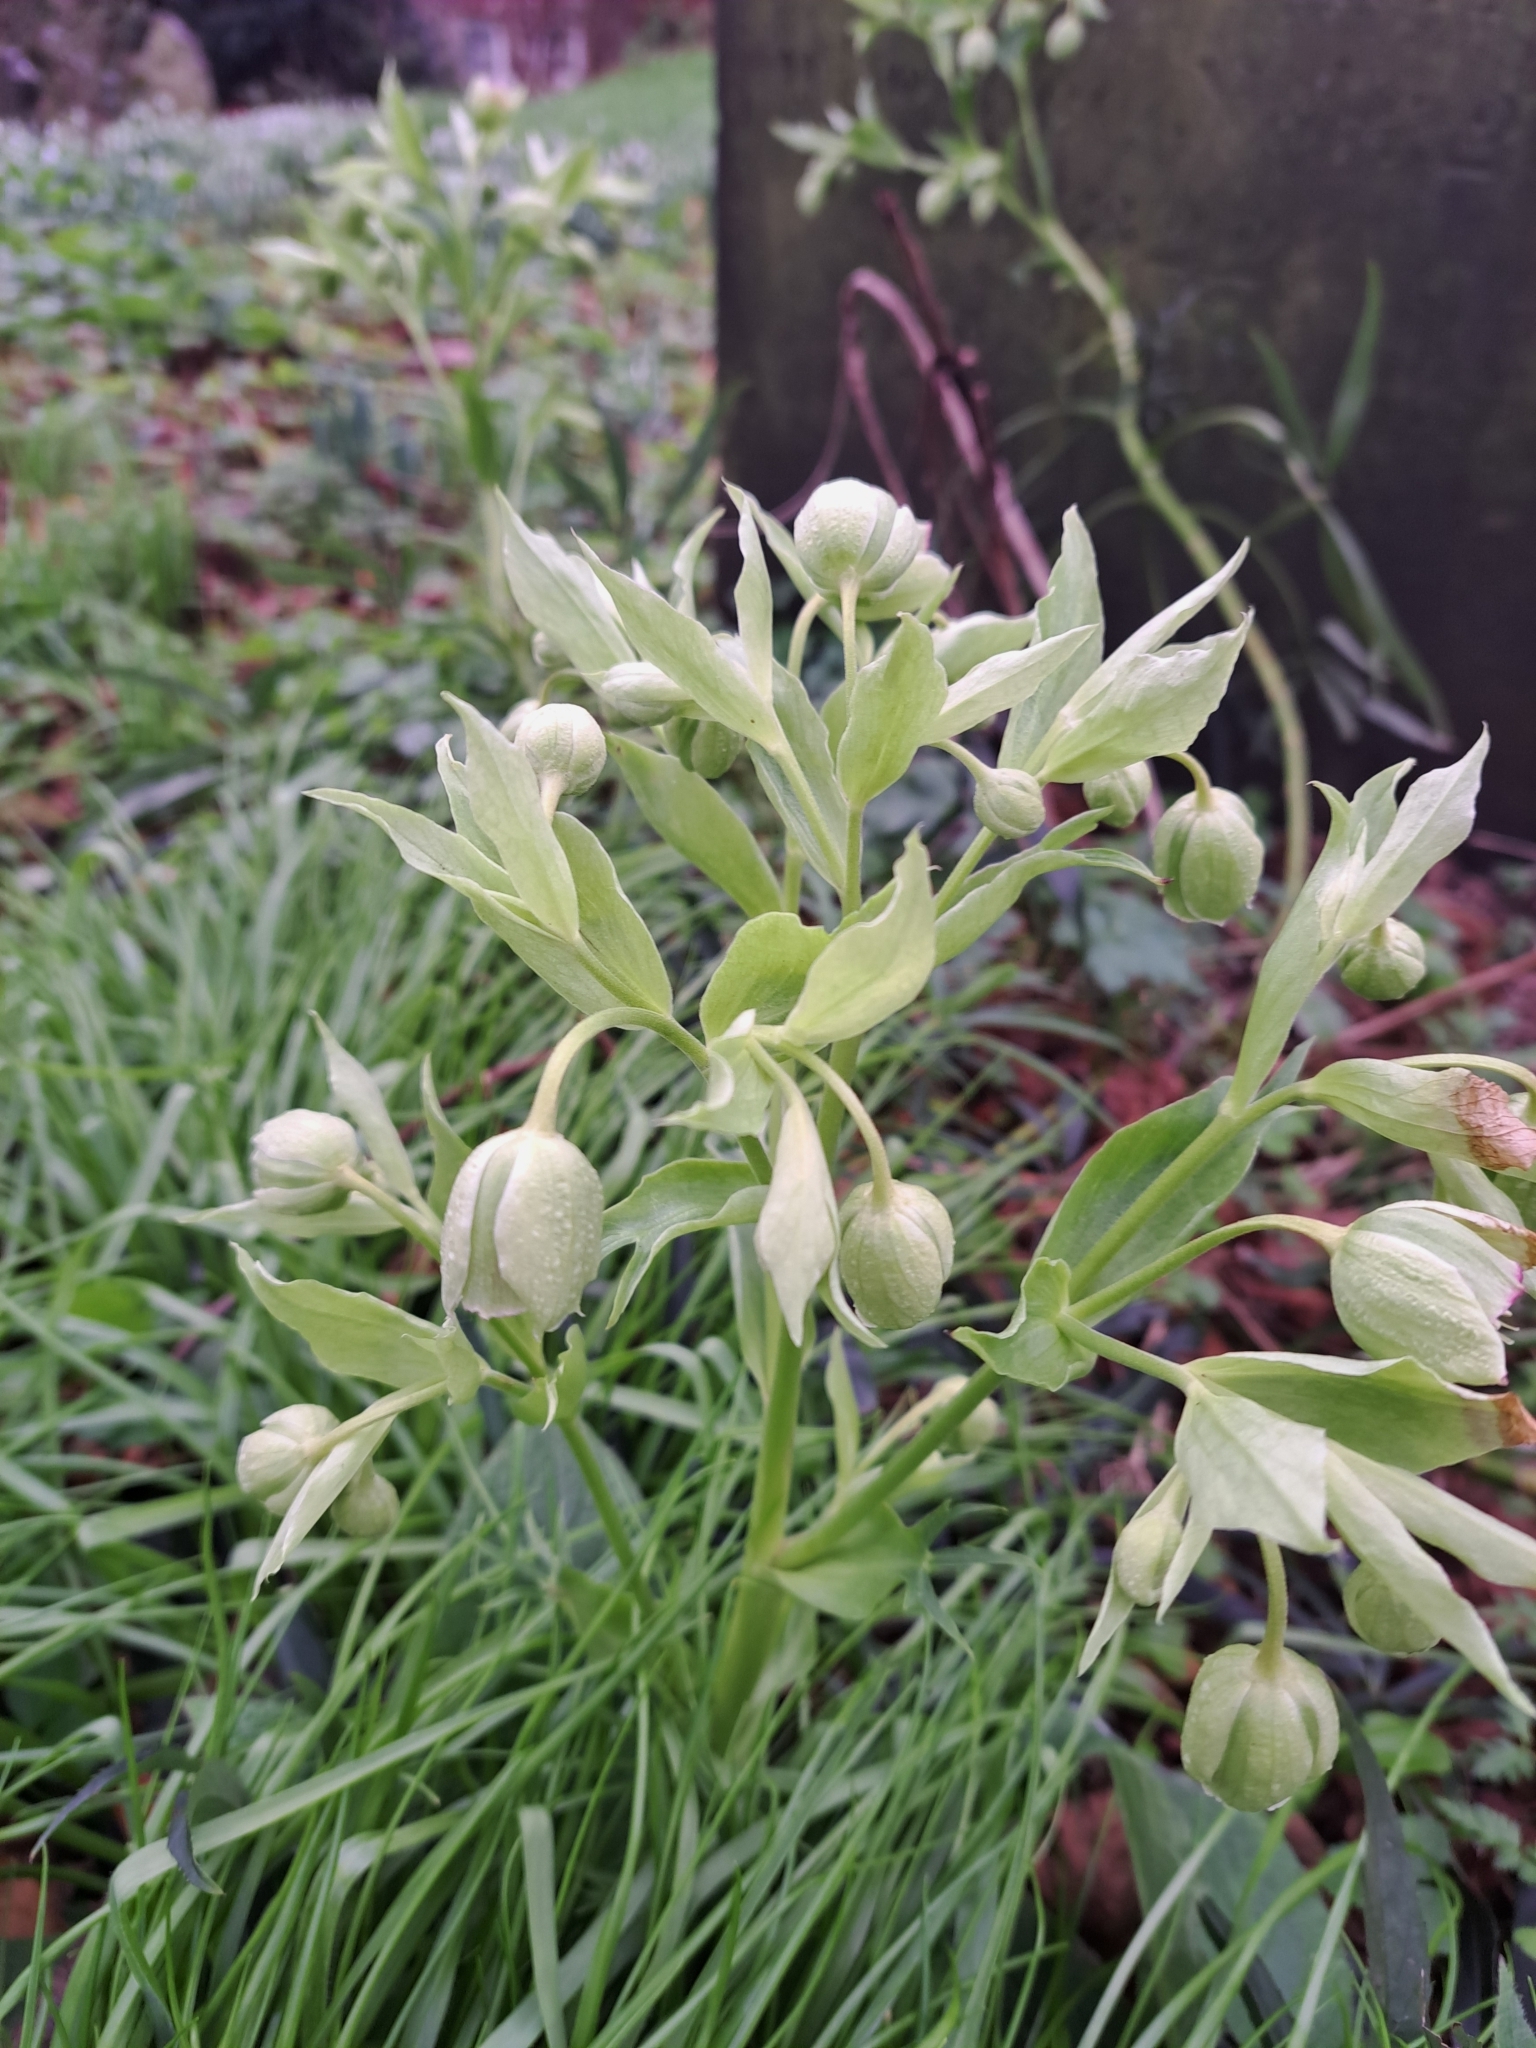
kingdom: Plantae
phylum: Tracheophyta
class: Magnoliopsida
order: Ranunculales
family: Ranunculaceae
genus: Helleborus
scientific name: Helleborus foetidus
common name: Stinking hellebore
